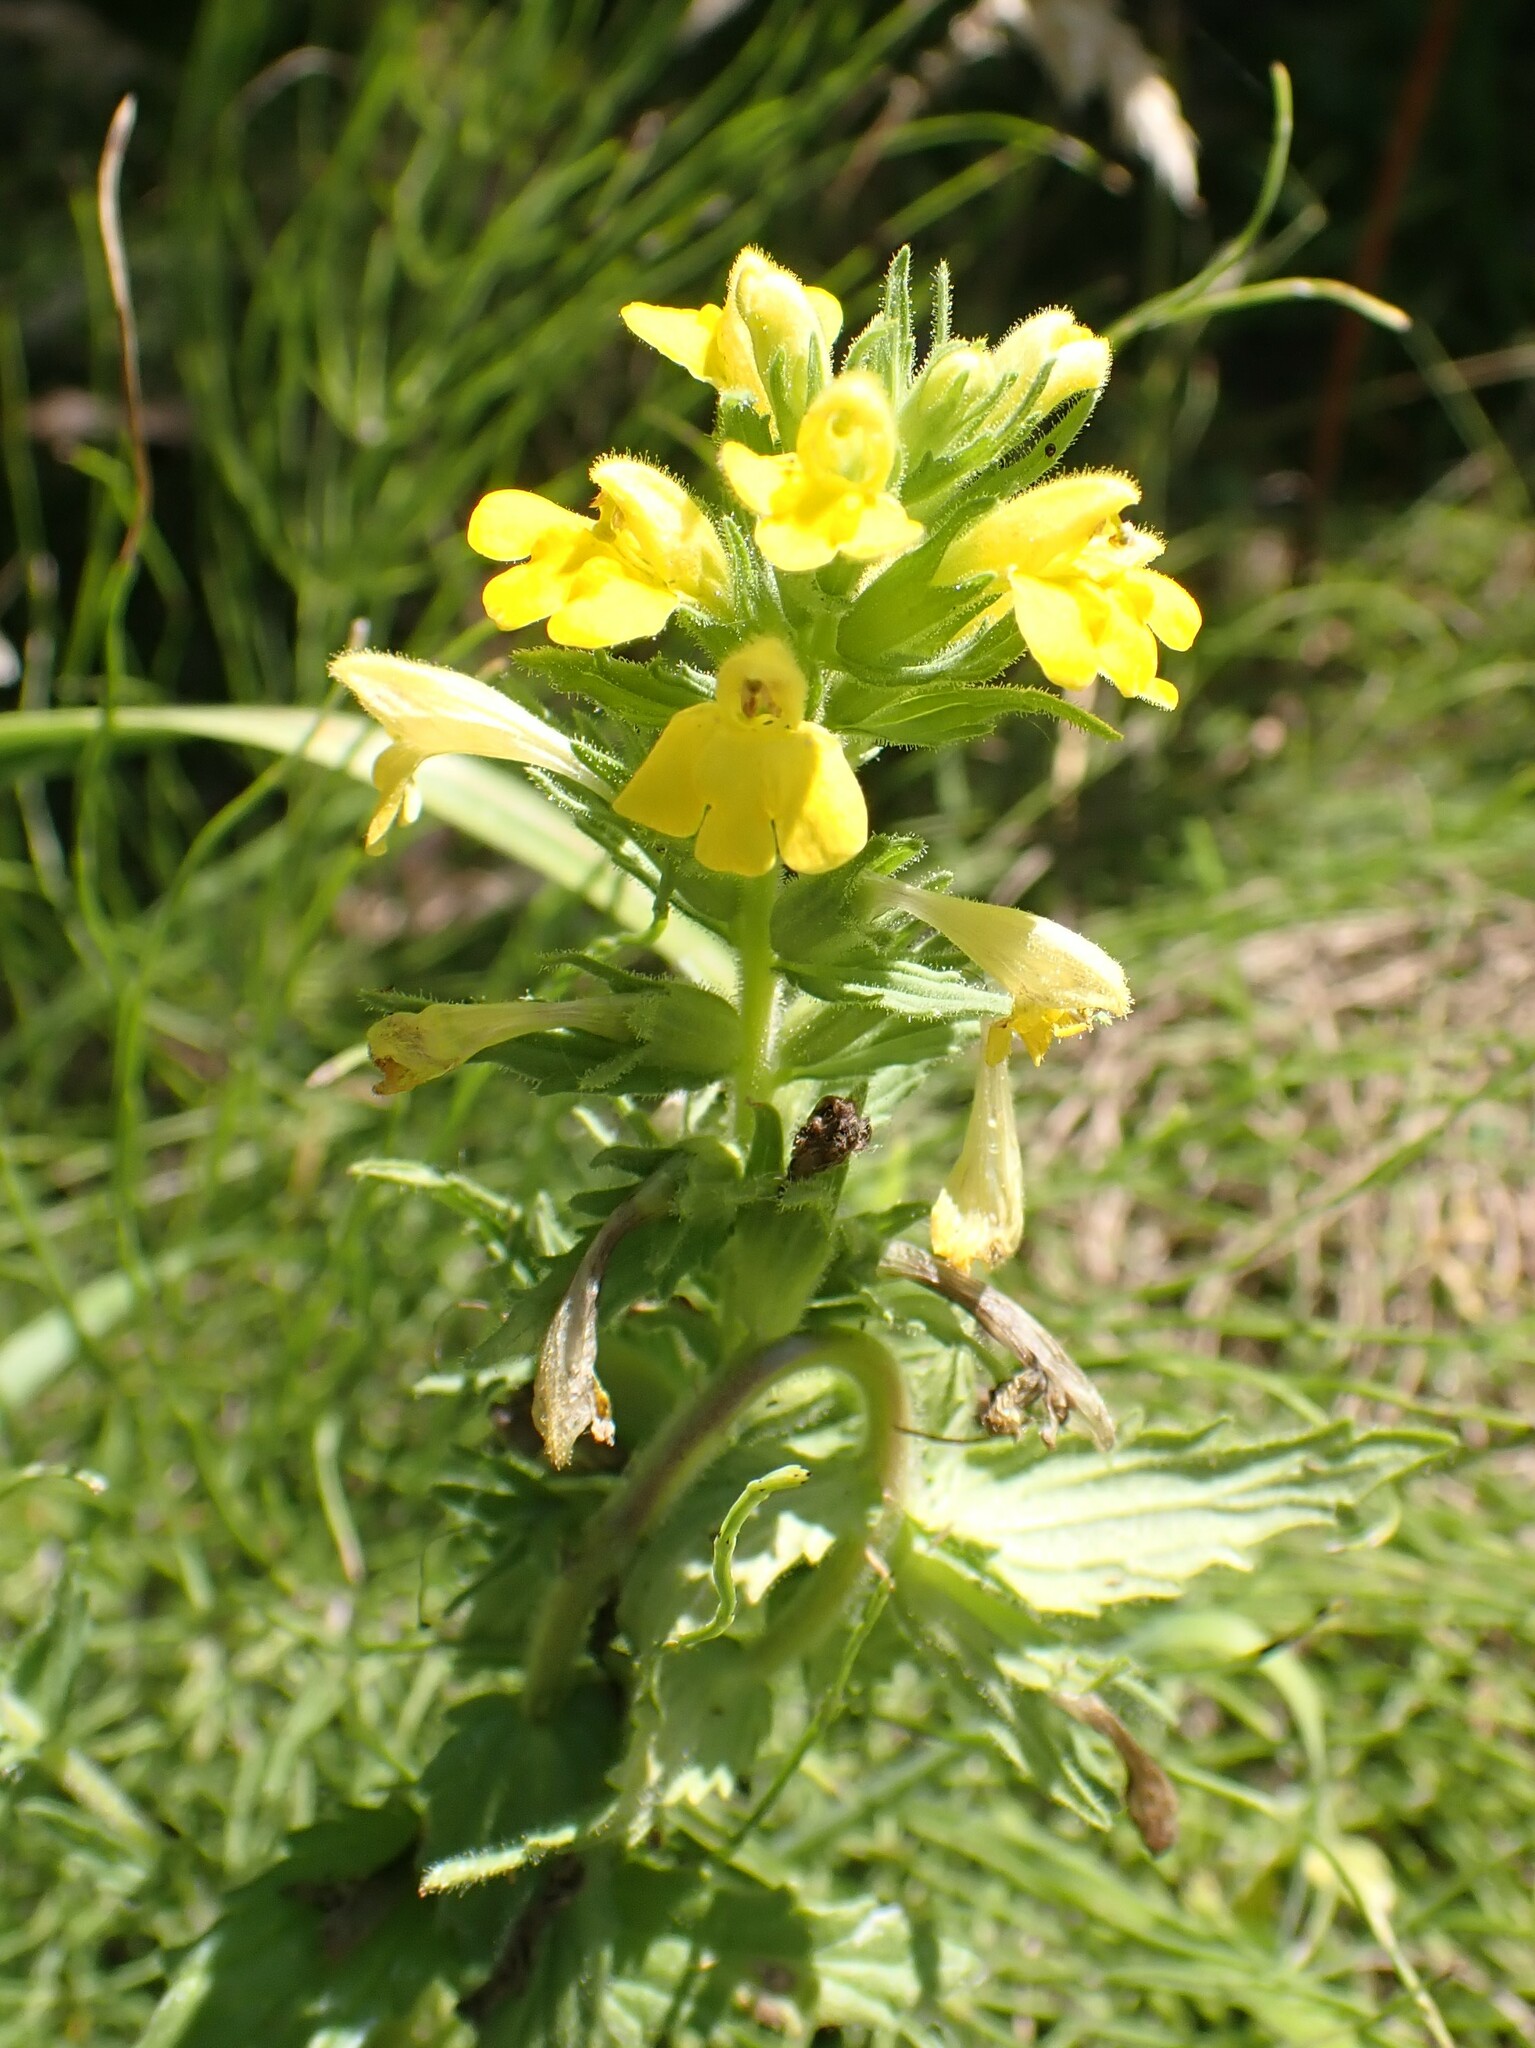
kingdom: Plantae
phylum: Tracheophyta
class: Magnoliopsida
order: Lamiales
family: Orobanchaceae
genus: Bellardia
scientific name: Bellardia viscosa
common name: Sticky parentucellia
